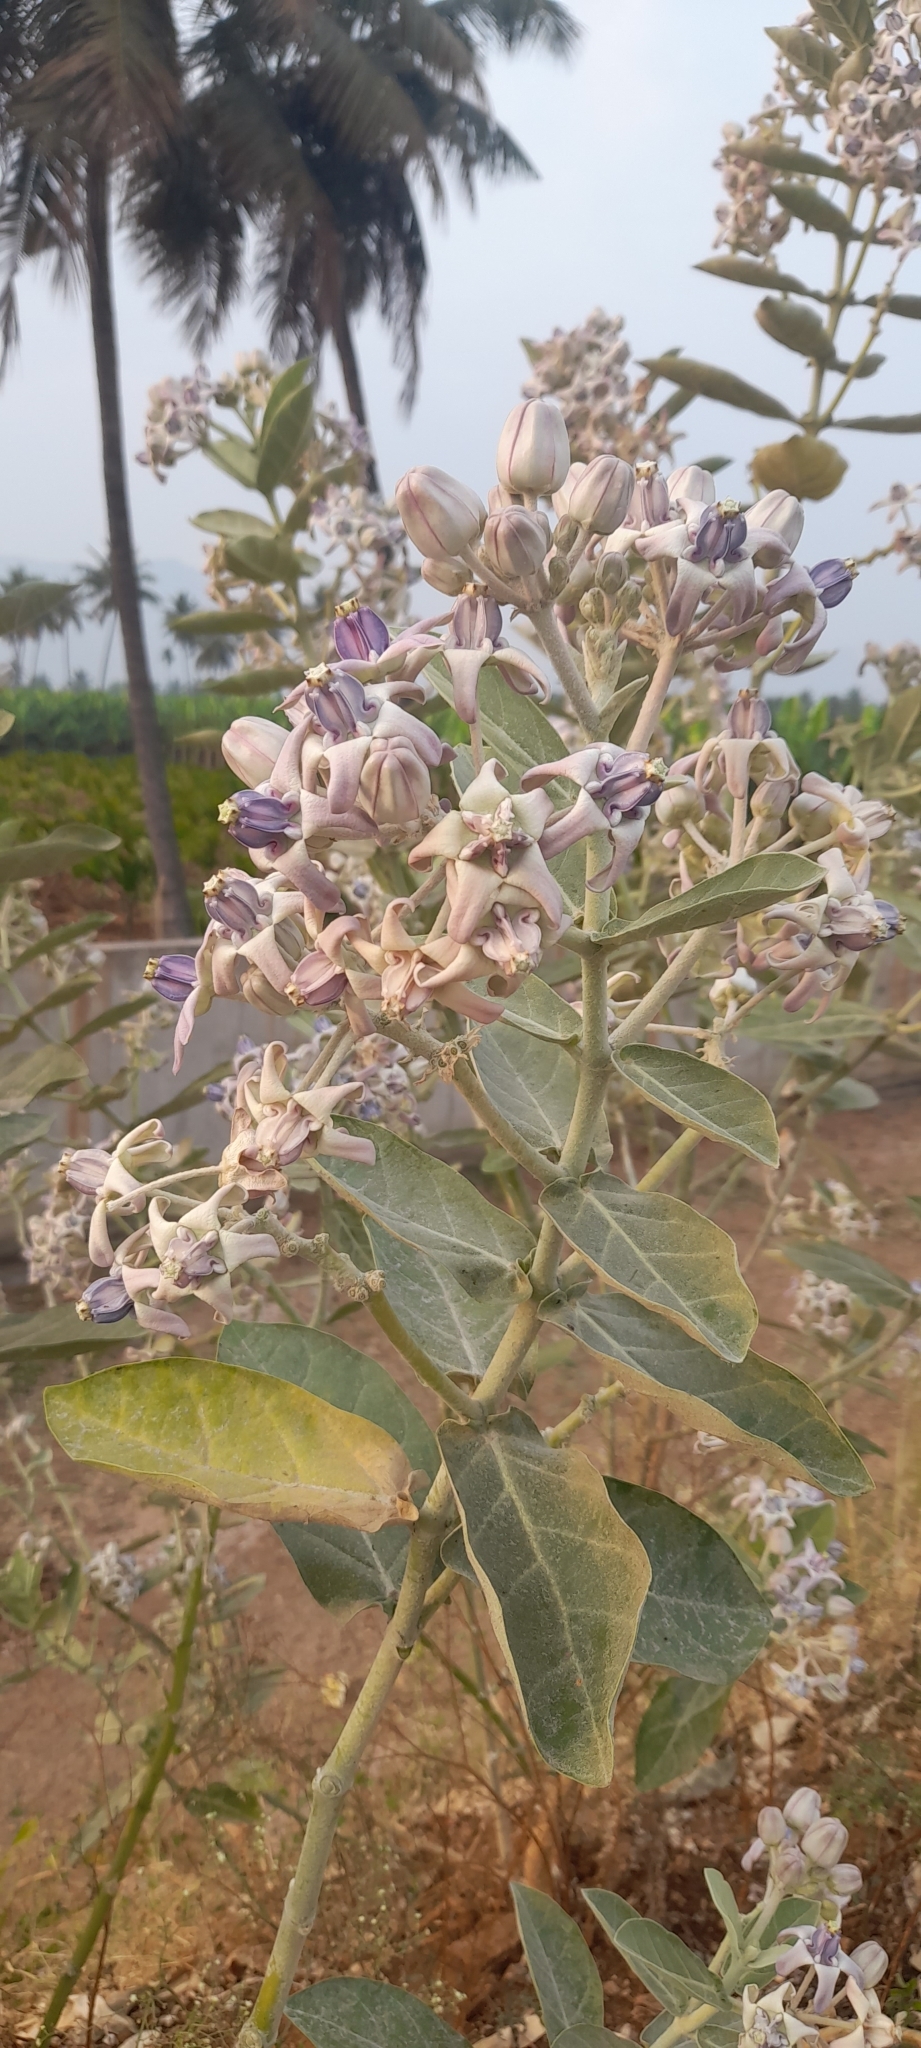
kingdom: Plantae
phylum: Tracheophyta
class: Magnoliopsida
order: Gentianales
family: Apocynaceae
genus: Calotropis
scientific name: Calotropis gigantea
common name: Crown flower
